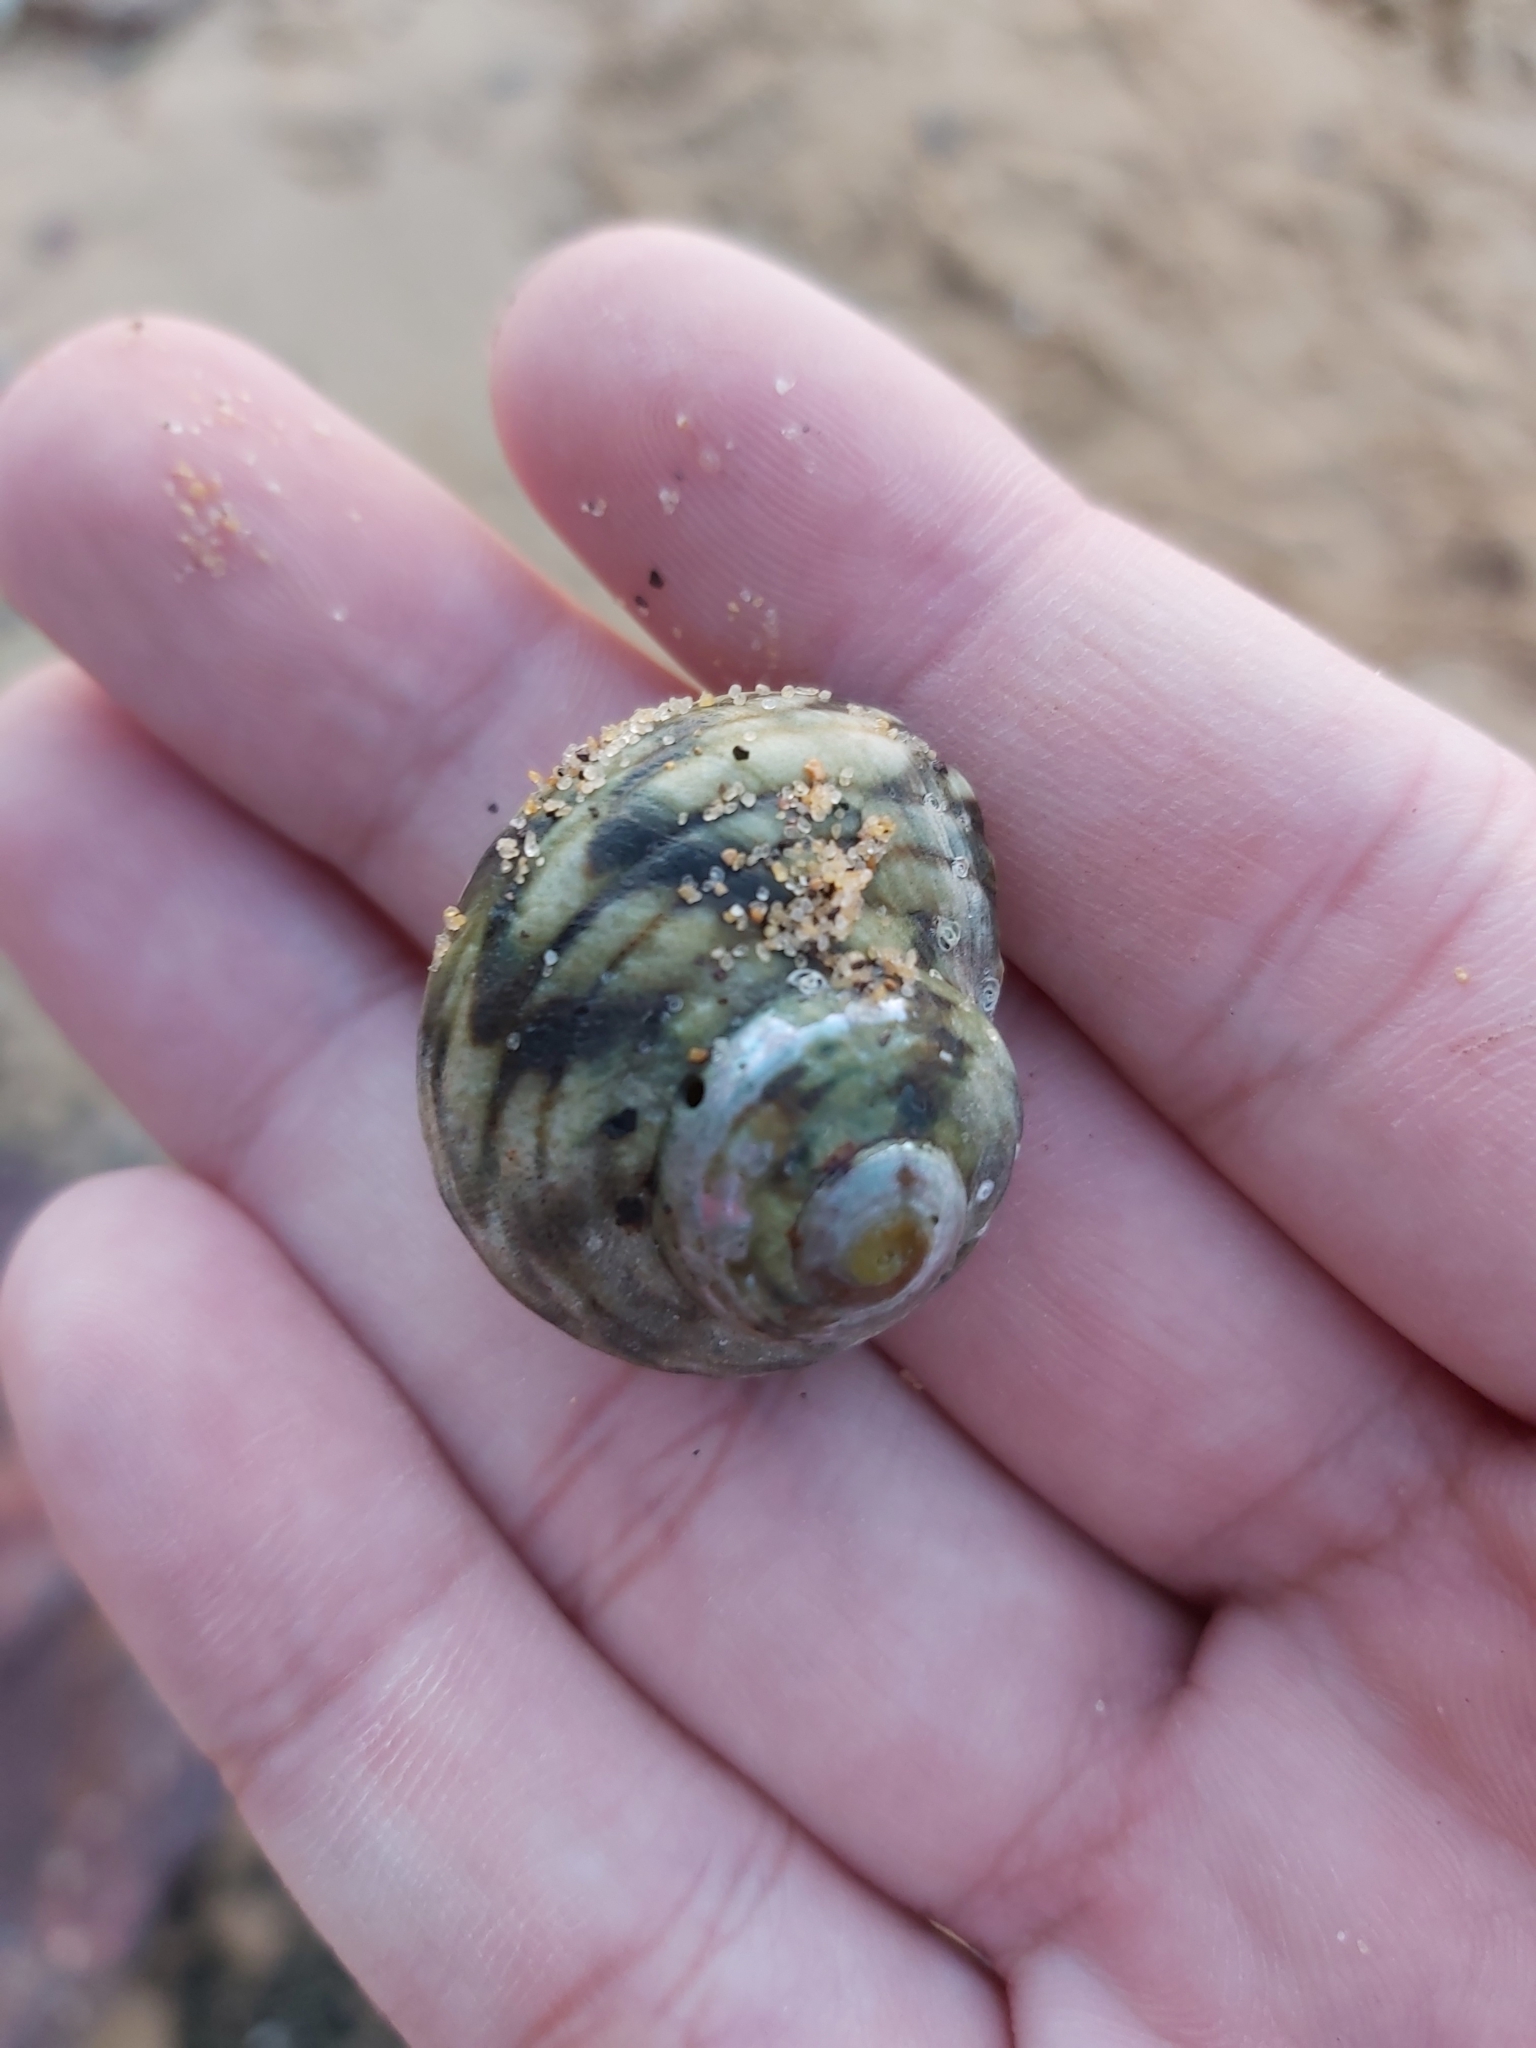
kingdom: Animalia
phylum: Mollusca
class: Gastropoda
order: Trochida
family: Turbinidae
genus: Lunella
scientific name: Lunella undulata
